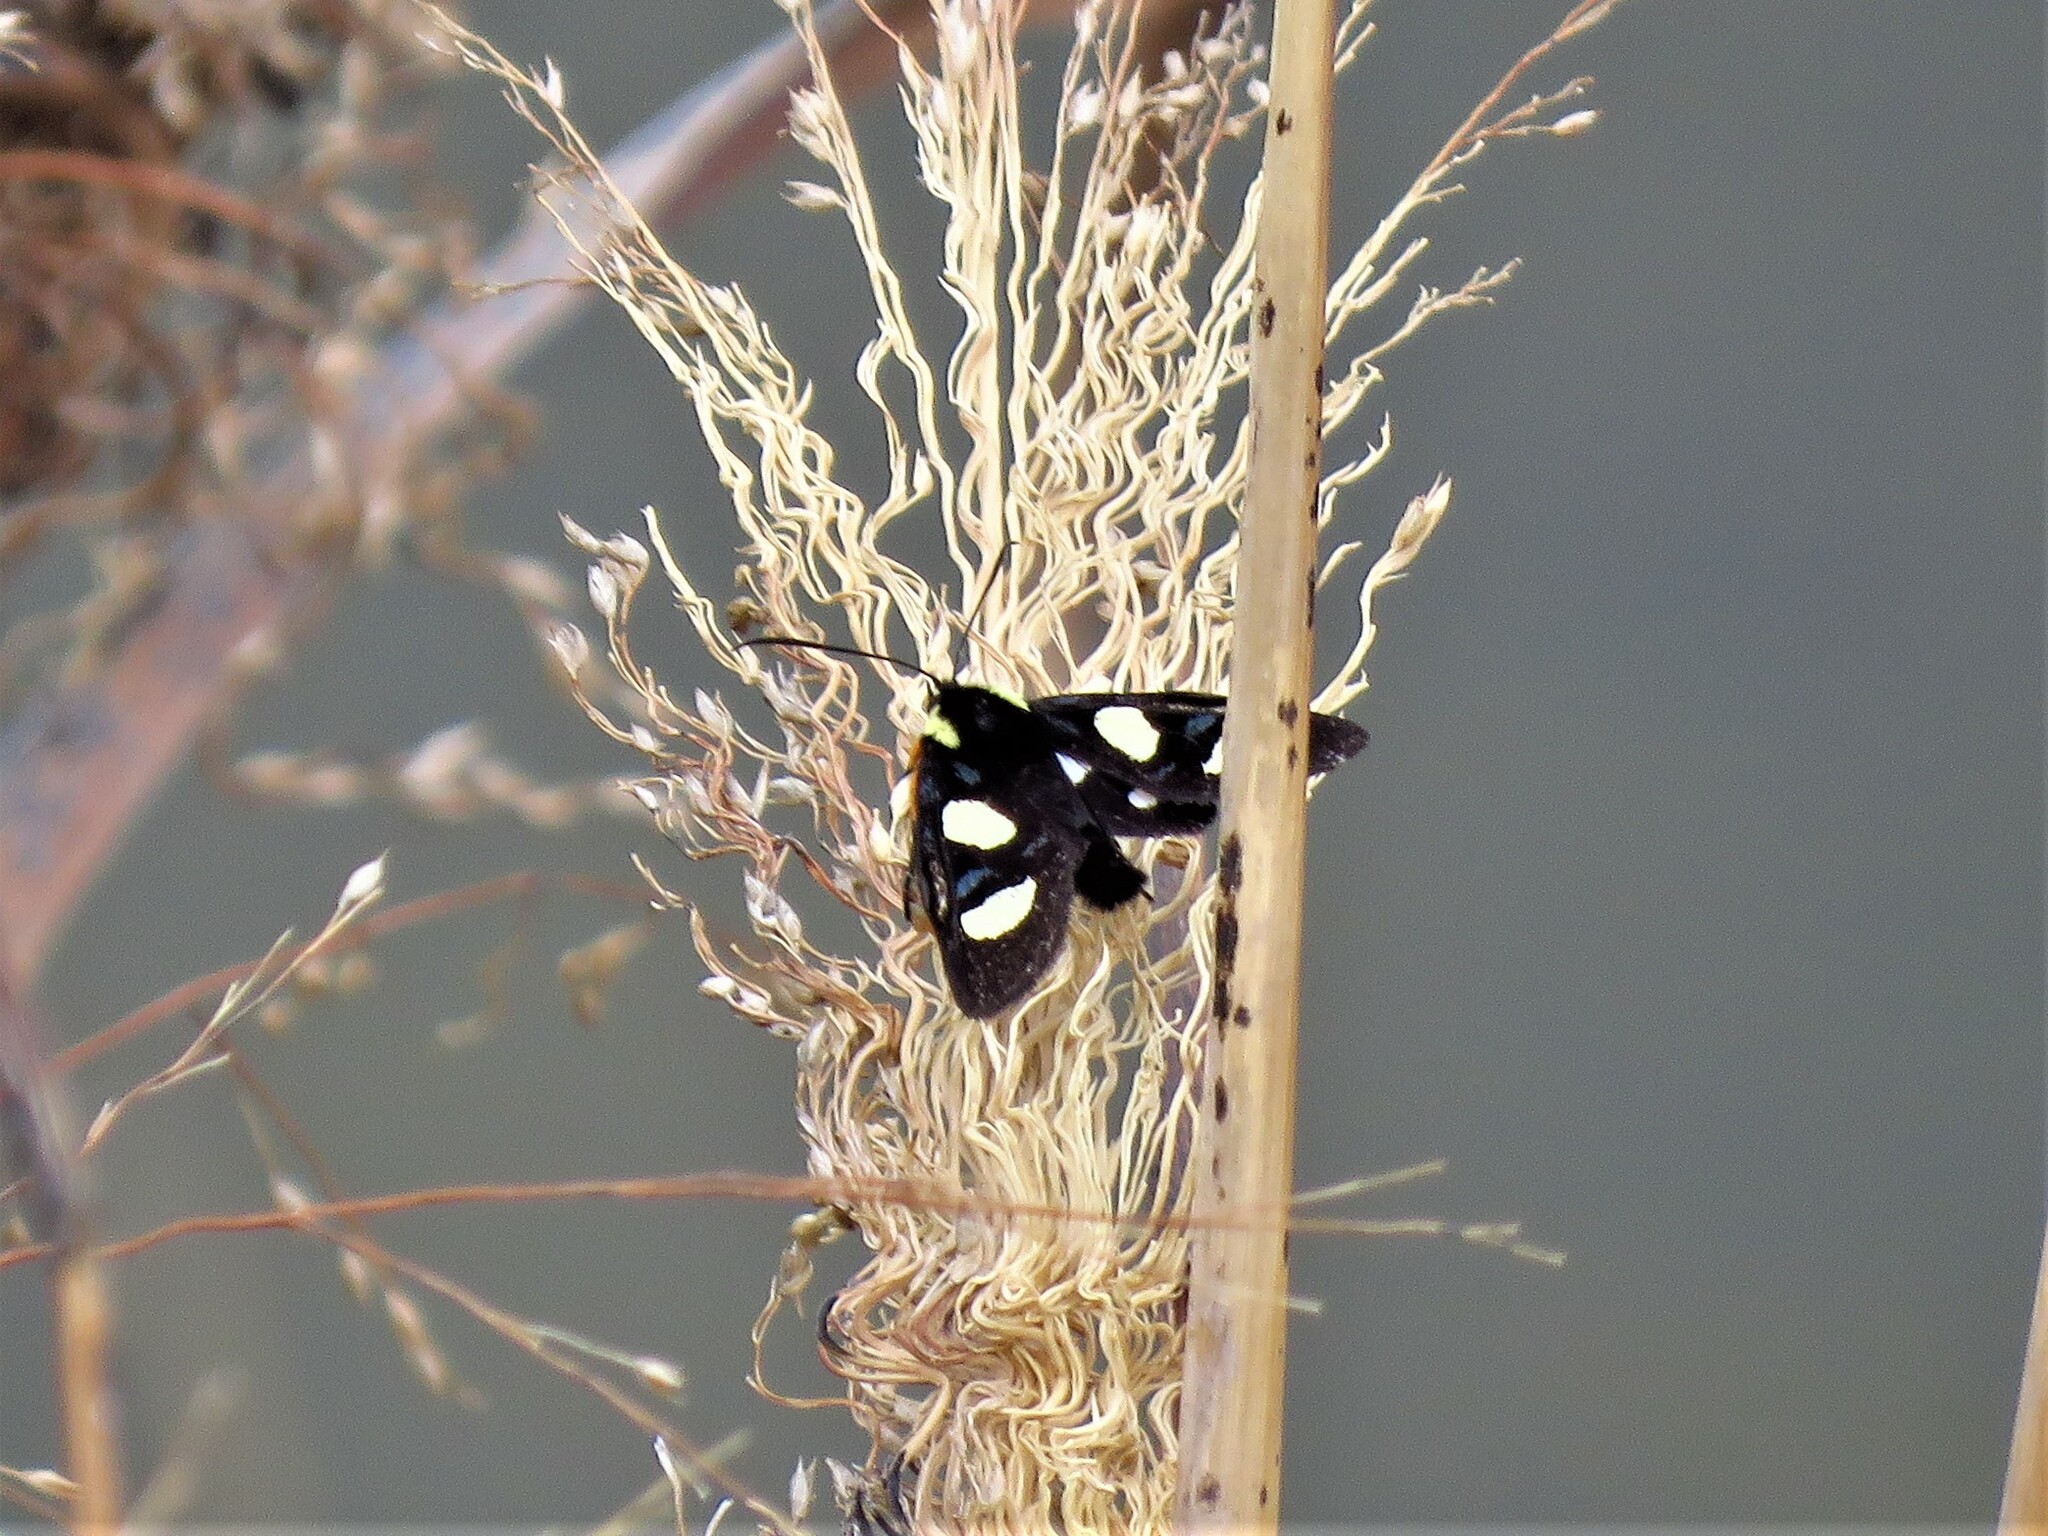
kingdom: Animalia
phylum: Arthropoda
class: Insecta
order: Lepidoptera
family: Noctuidae
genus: Alypia
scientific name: Alypia disparata
